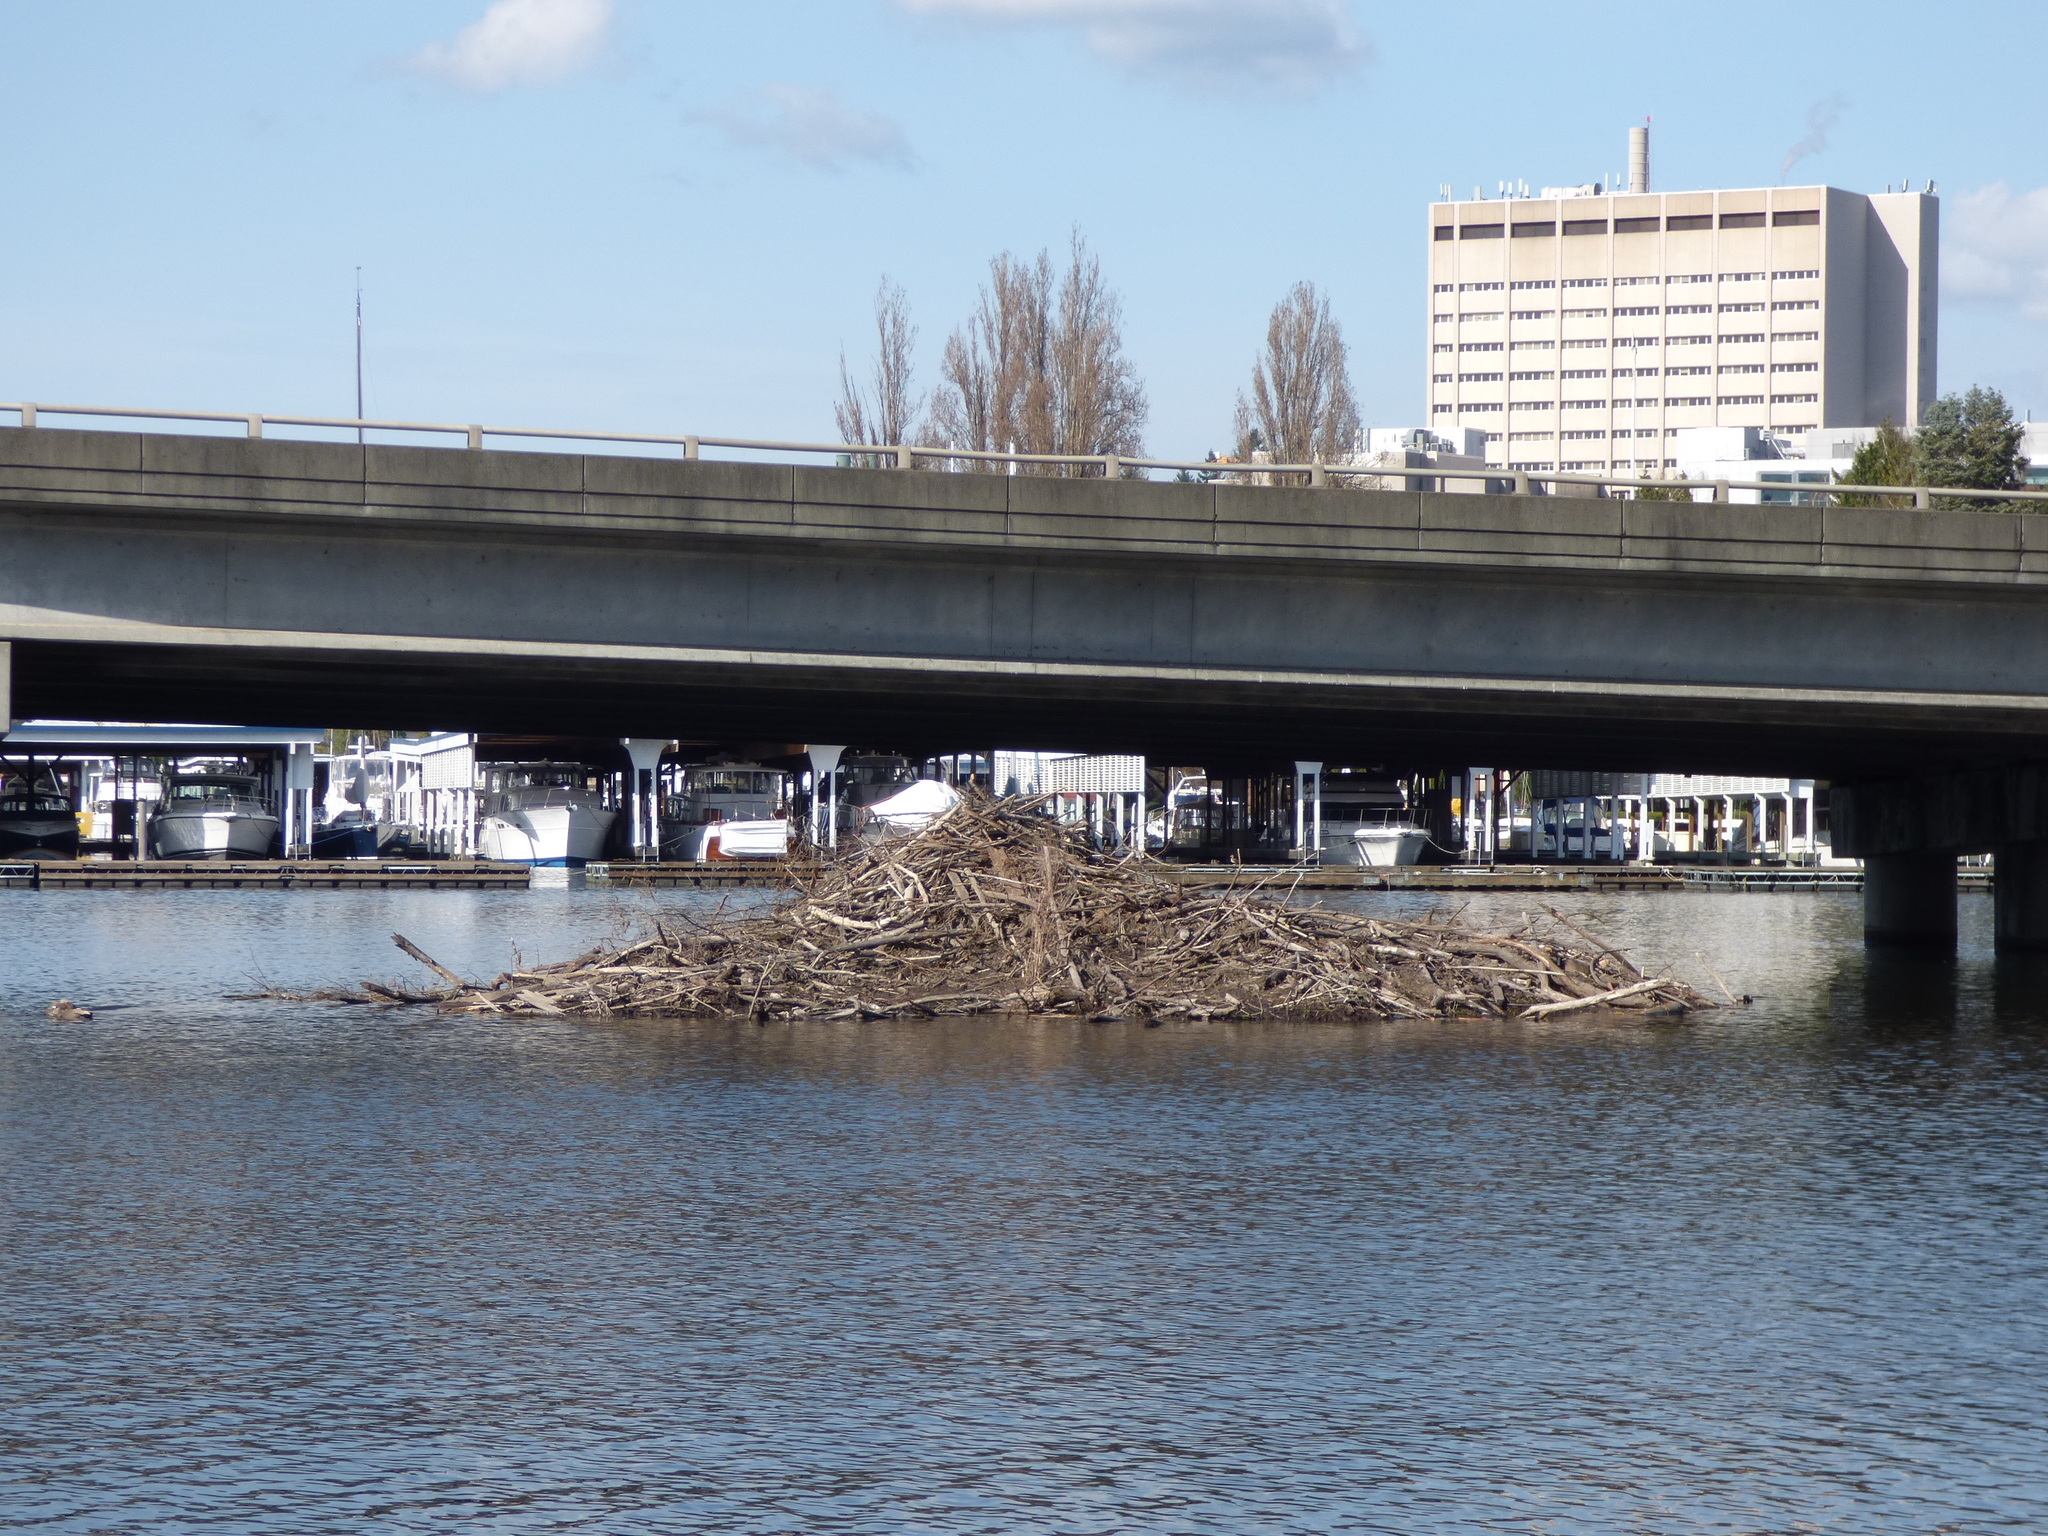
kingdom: Animalia
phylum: Chordata
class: Mammalia
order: Rodentia
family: Castoridae
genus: Castor
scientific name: Castor canadensis
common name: American beaver
